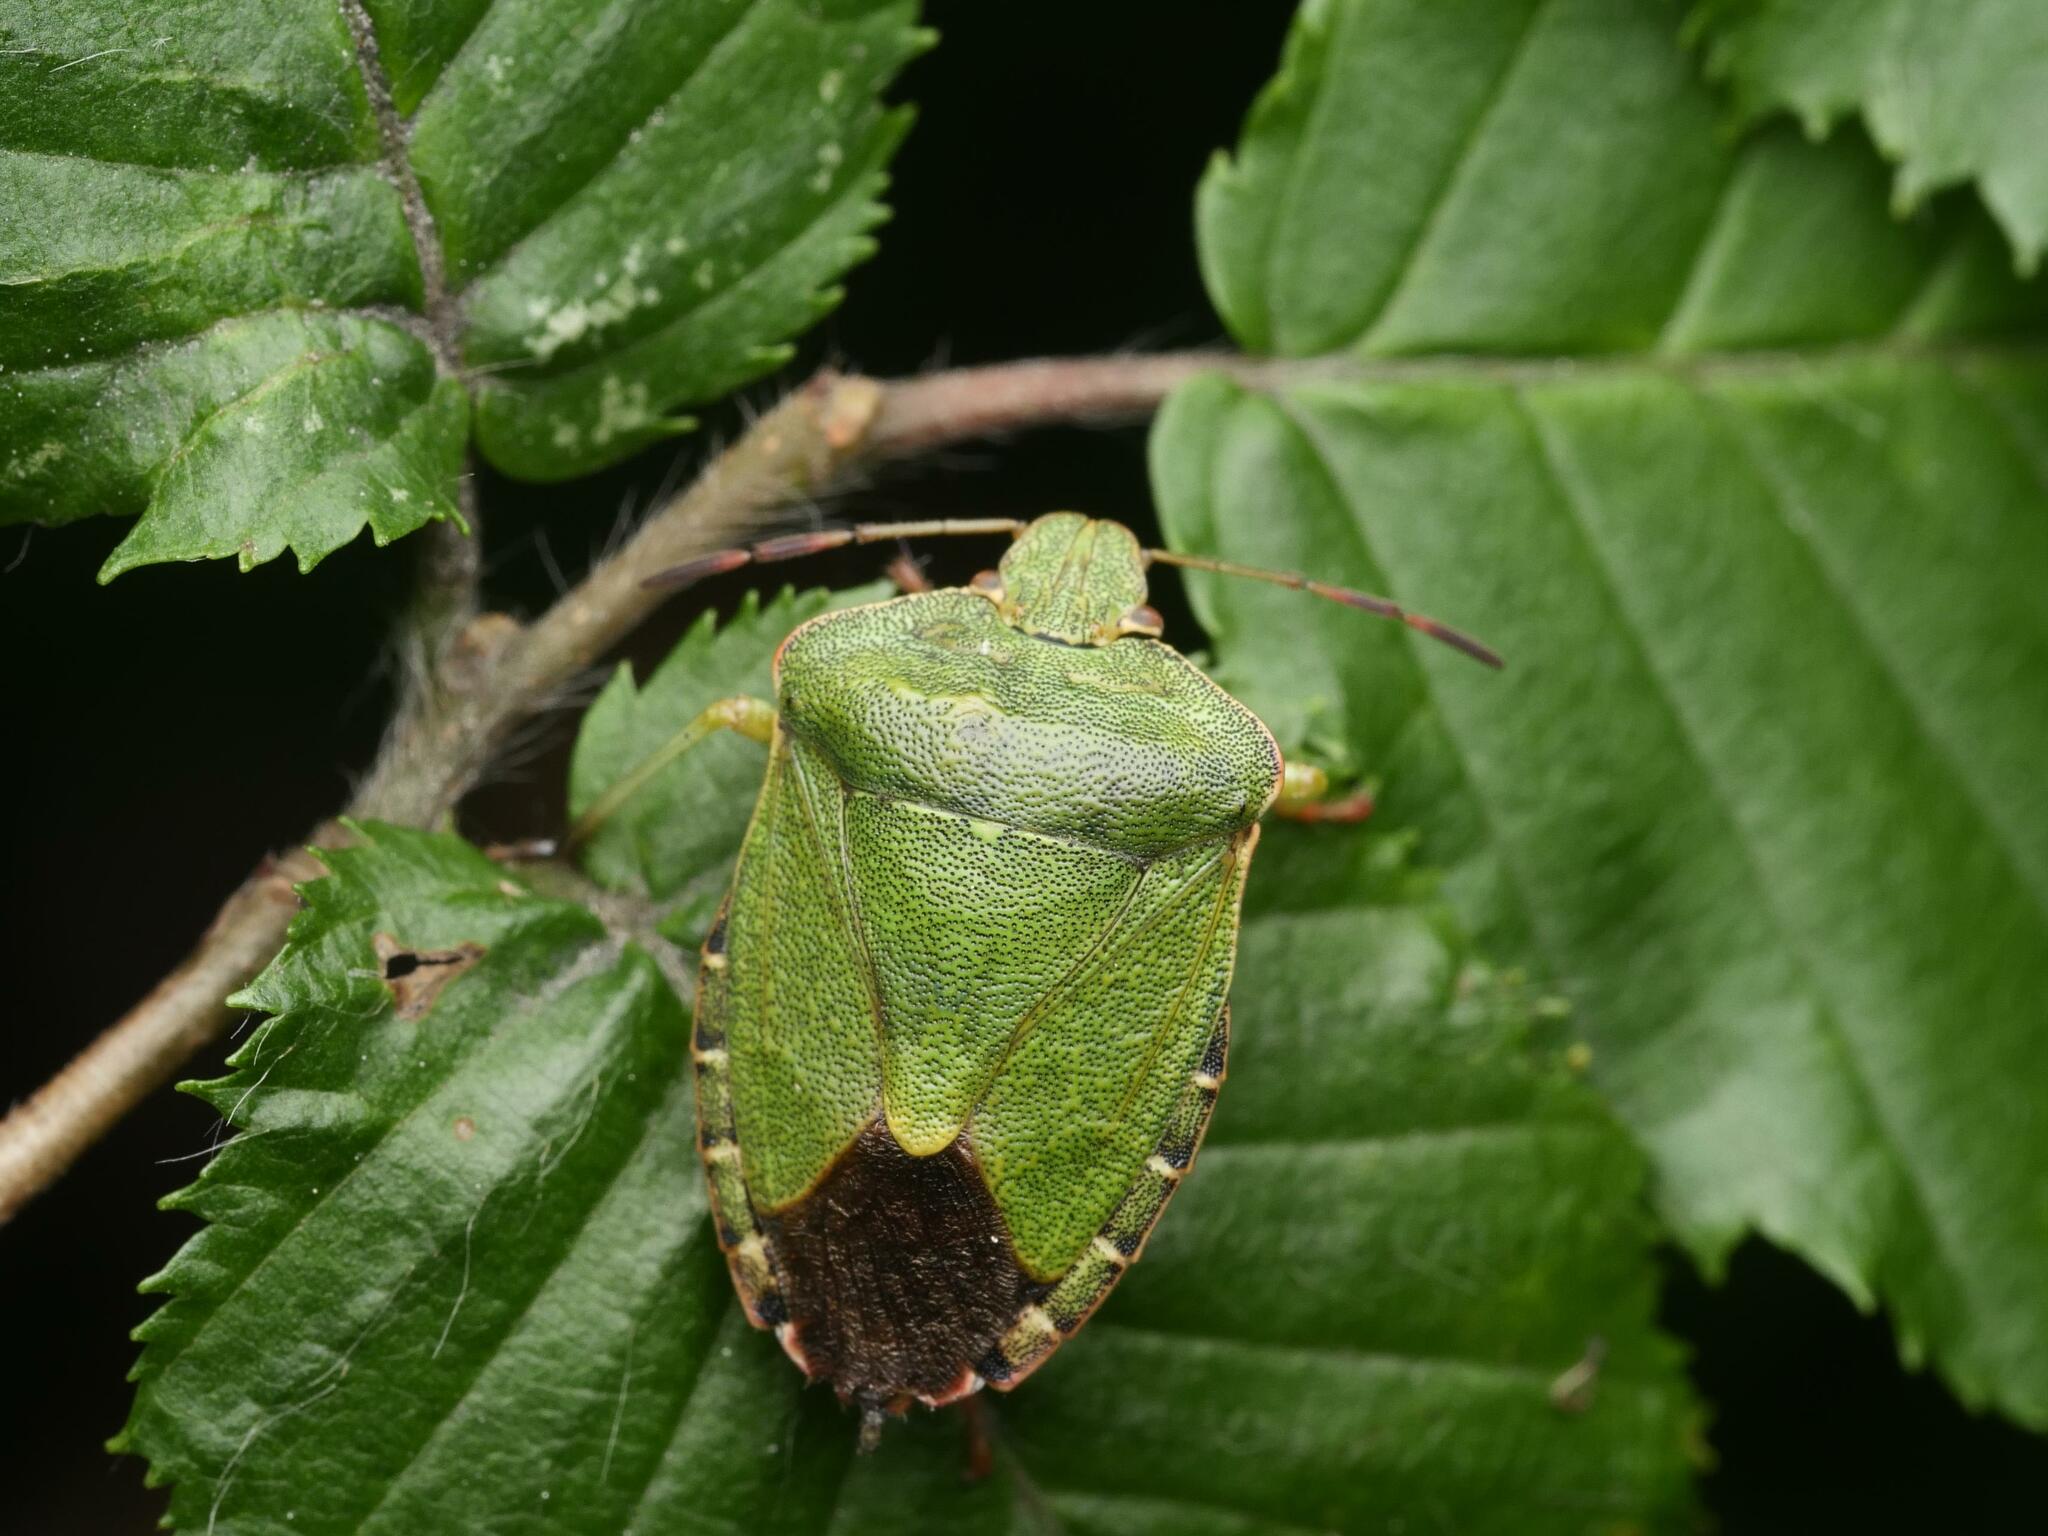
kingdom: Animalia
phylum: Arthropoda
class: Insecta
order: Hemiptera
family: Pentatomidae
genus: Palomena
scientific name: Palomena prasina
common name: Green shieldbug
